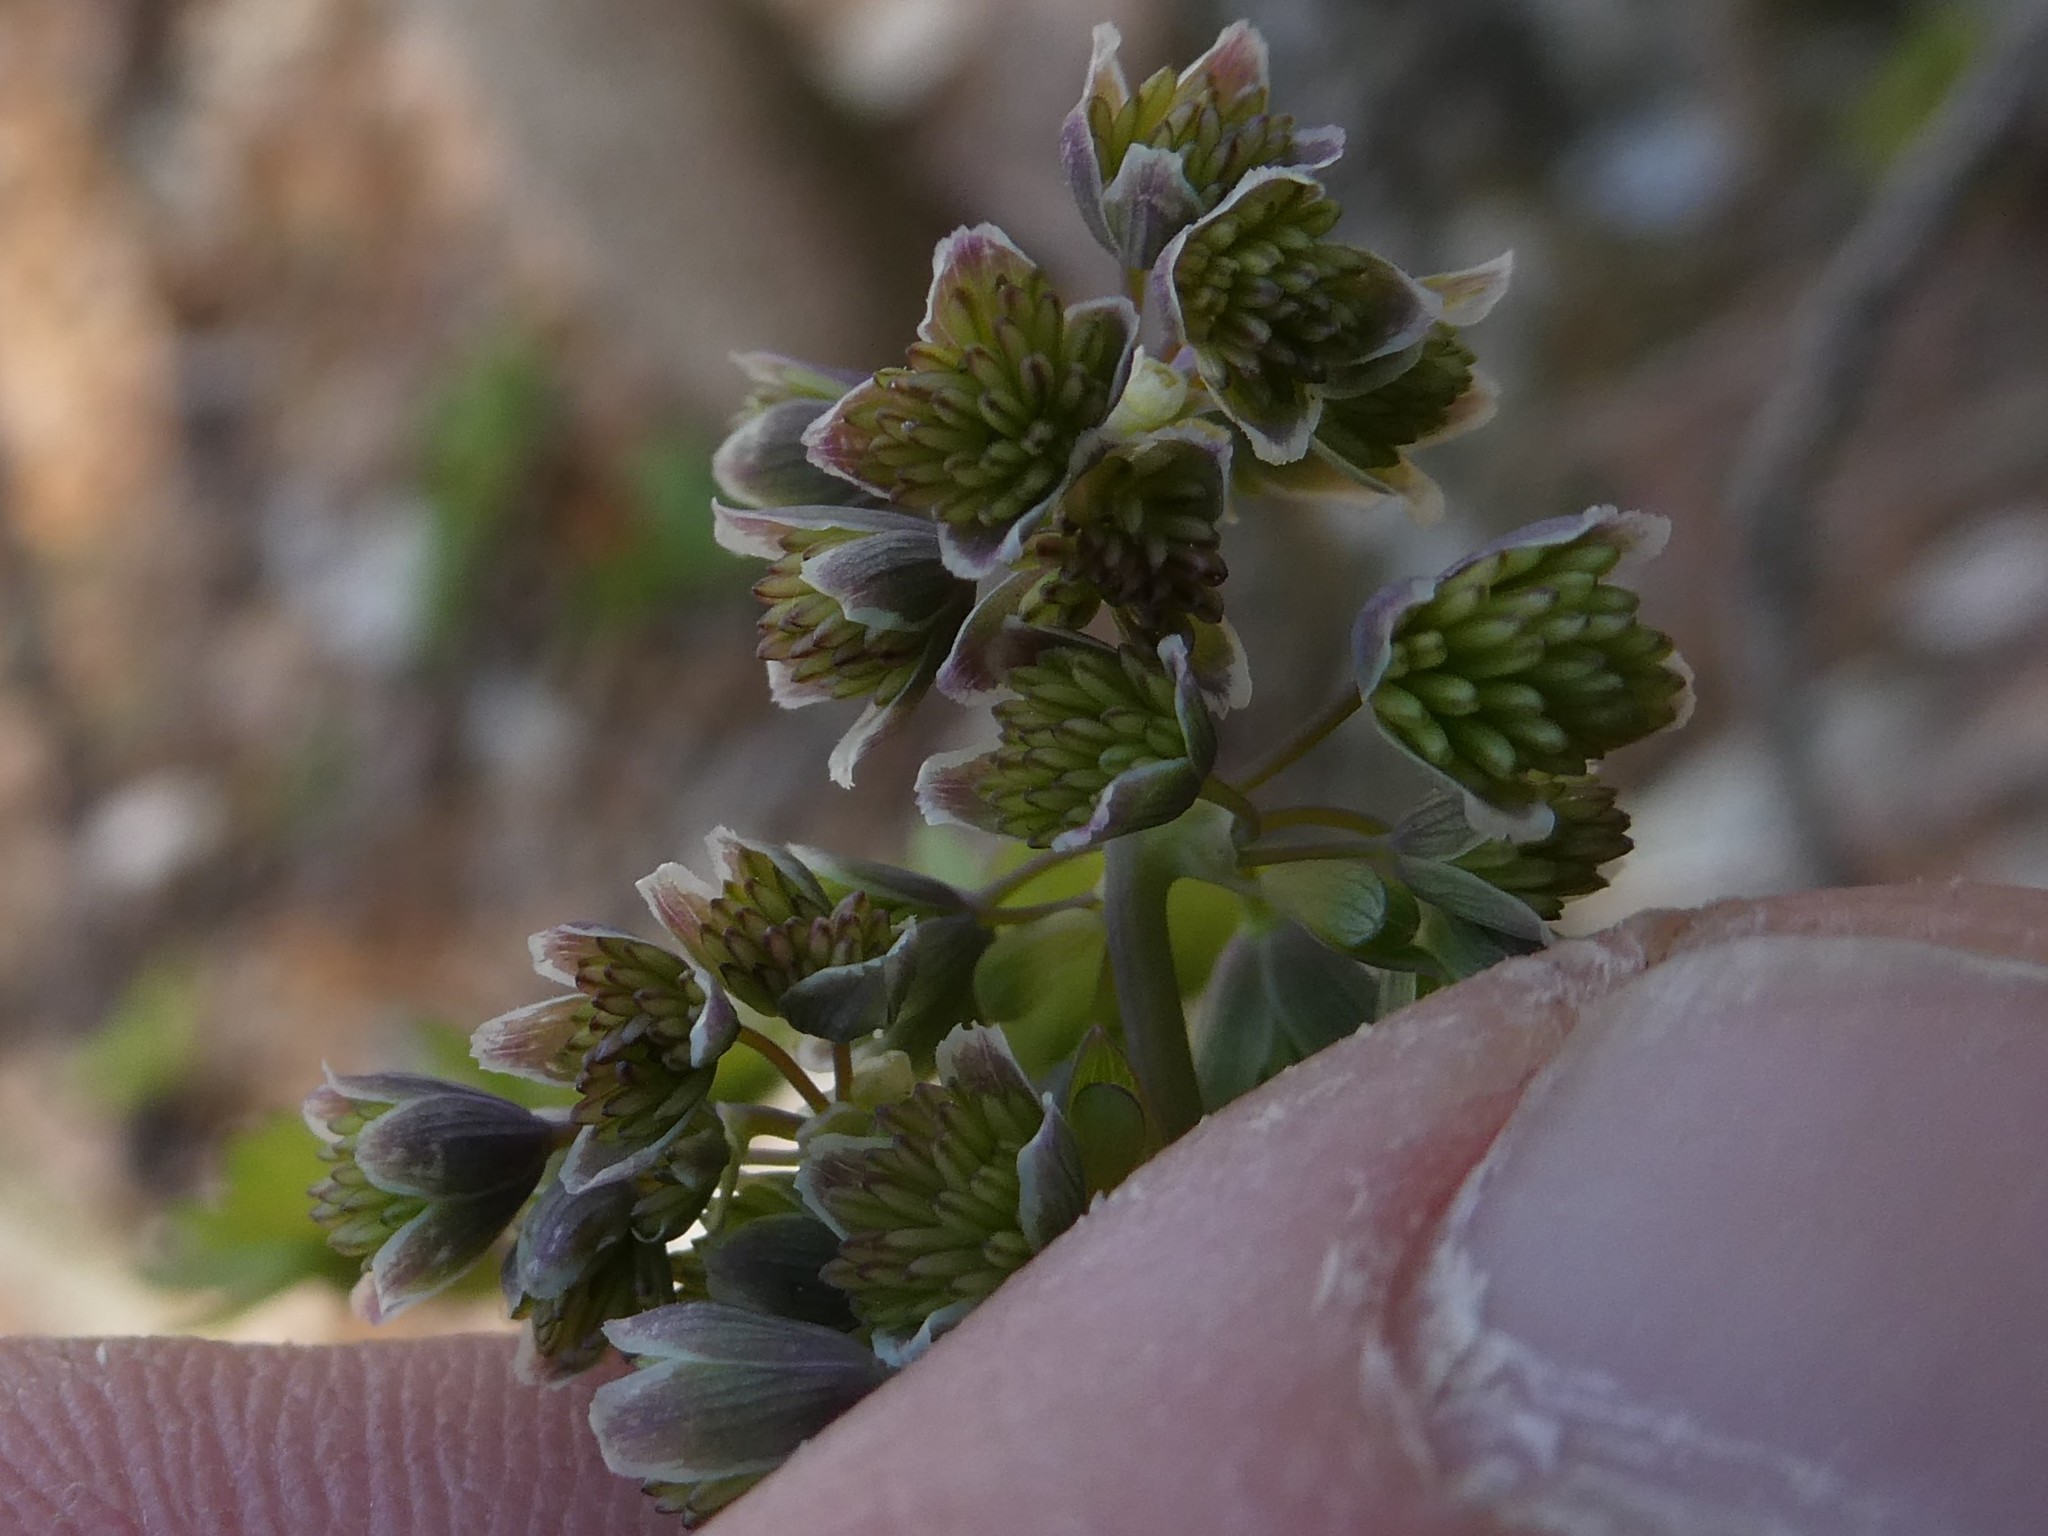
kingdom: Plantae
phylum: Tracheophyta
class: Magnoliopsida
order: Ranunculales
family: Ranunculaceae
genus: Thalictrum
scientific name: Thalictrum dioicum
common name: Early meadow-rue
